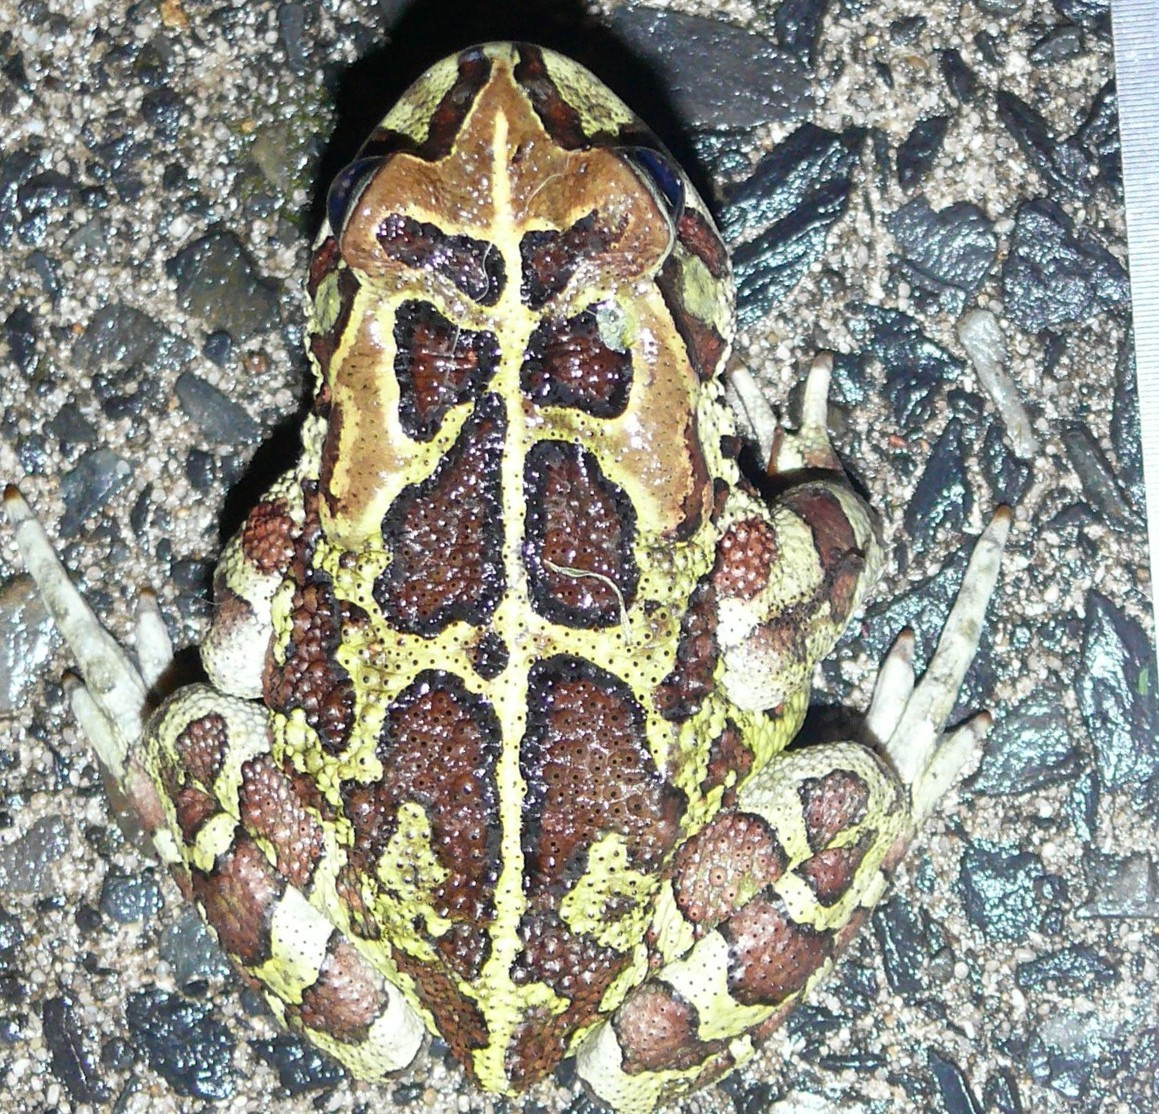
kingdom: Animalia
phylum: Chordata
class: Amphibia
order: Anura
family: Bufonidae
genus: Sclerophrys
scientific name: Sclerophrys pantherina
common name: Panther toad
